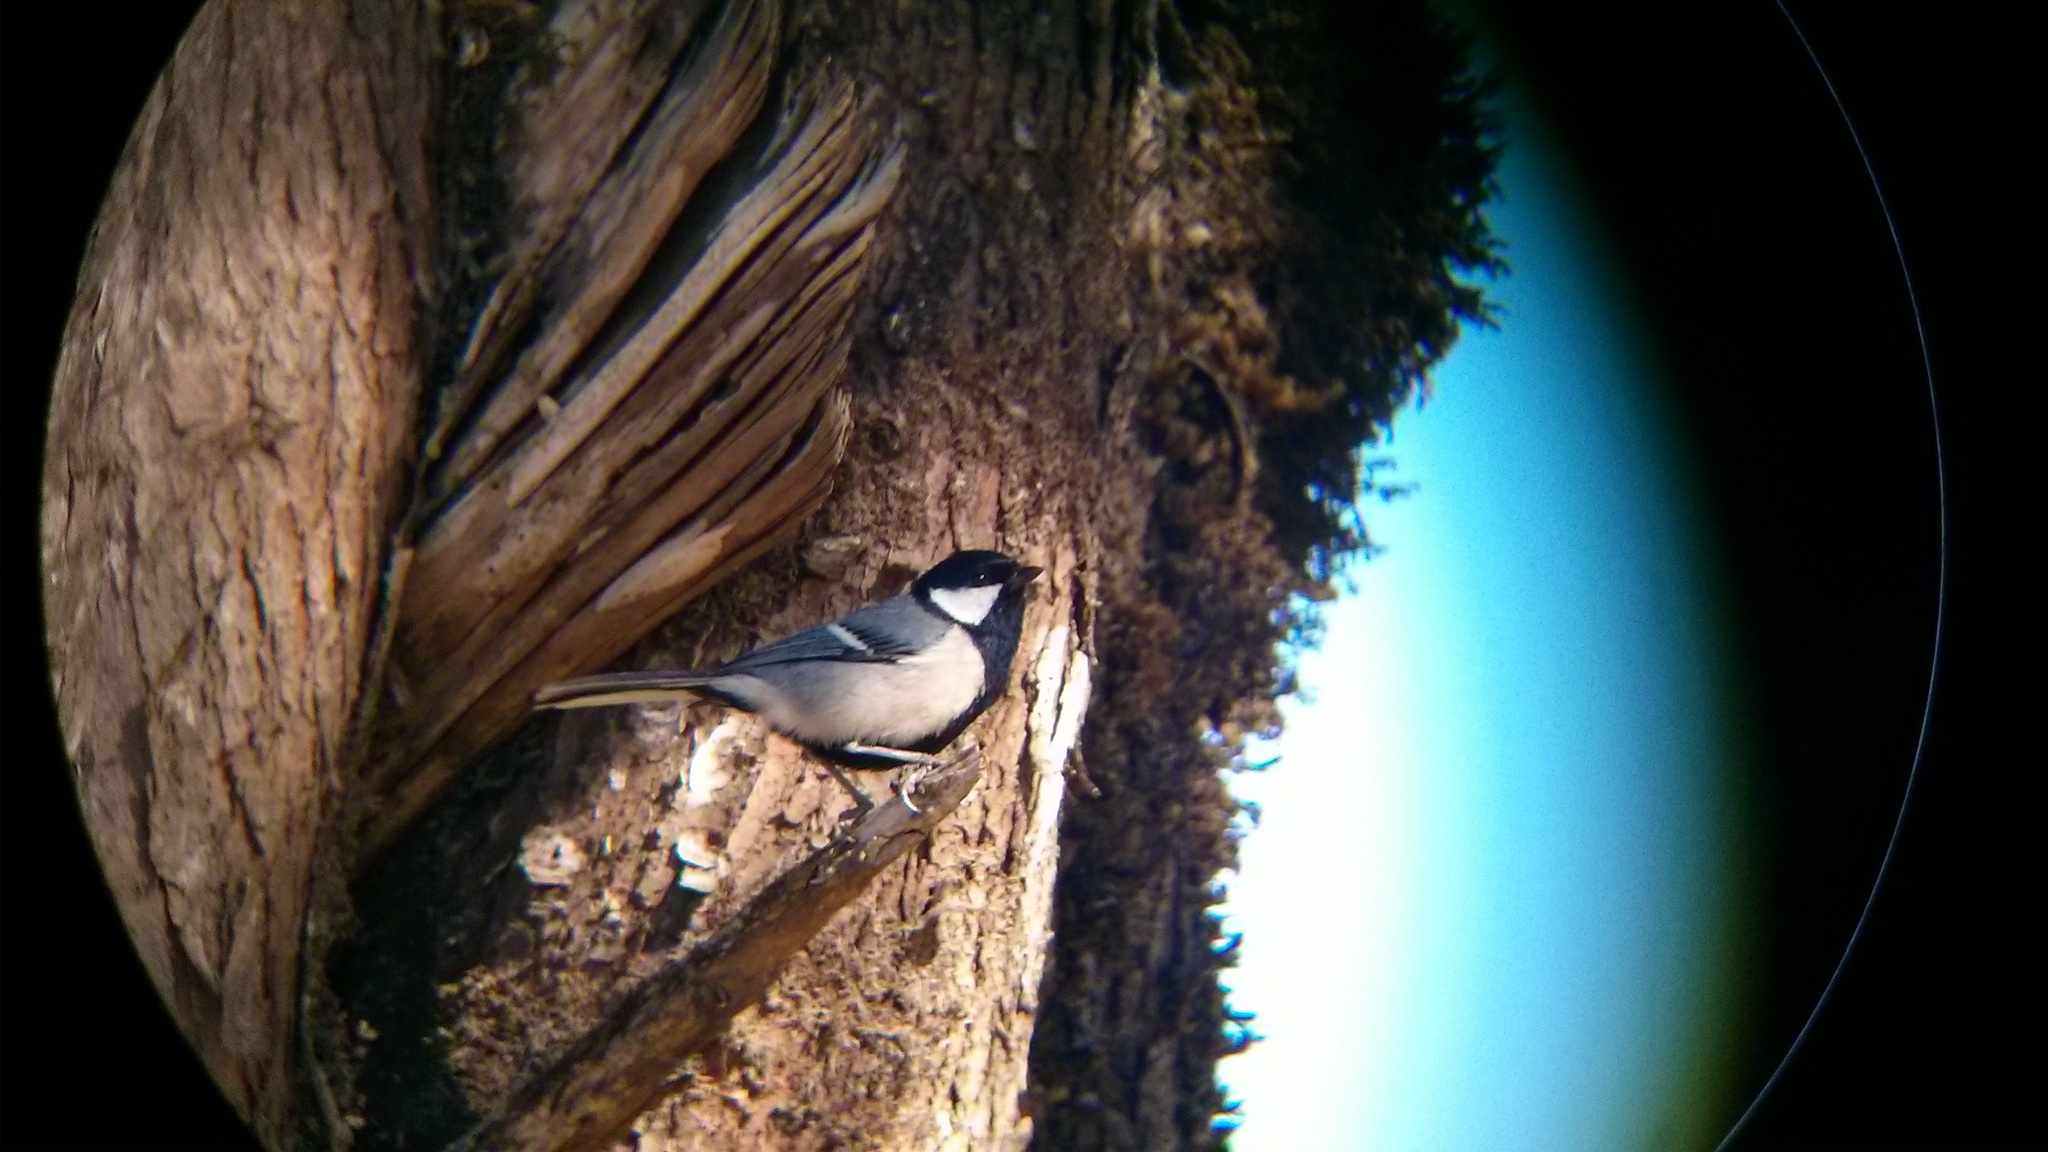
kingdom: Animalia
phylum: Chordata
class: Aves
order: Passeriformes
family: Paridae
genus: Parus
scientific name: Parus cinereus
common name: Cinereous tit
